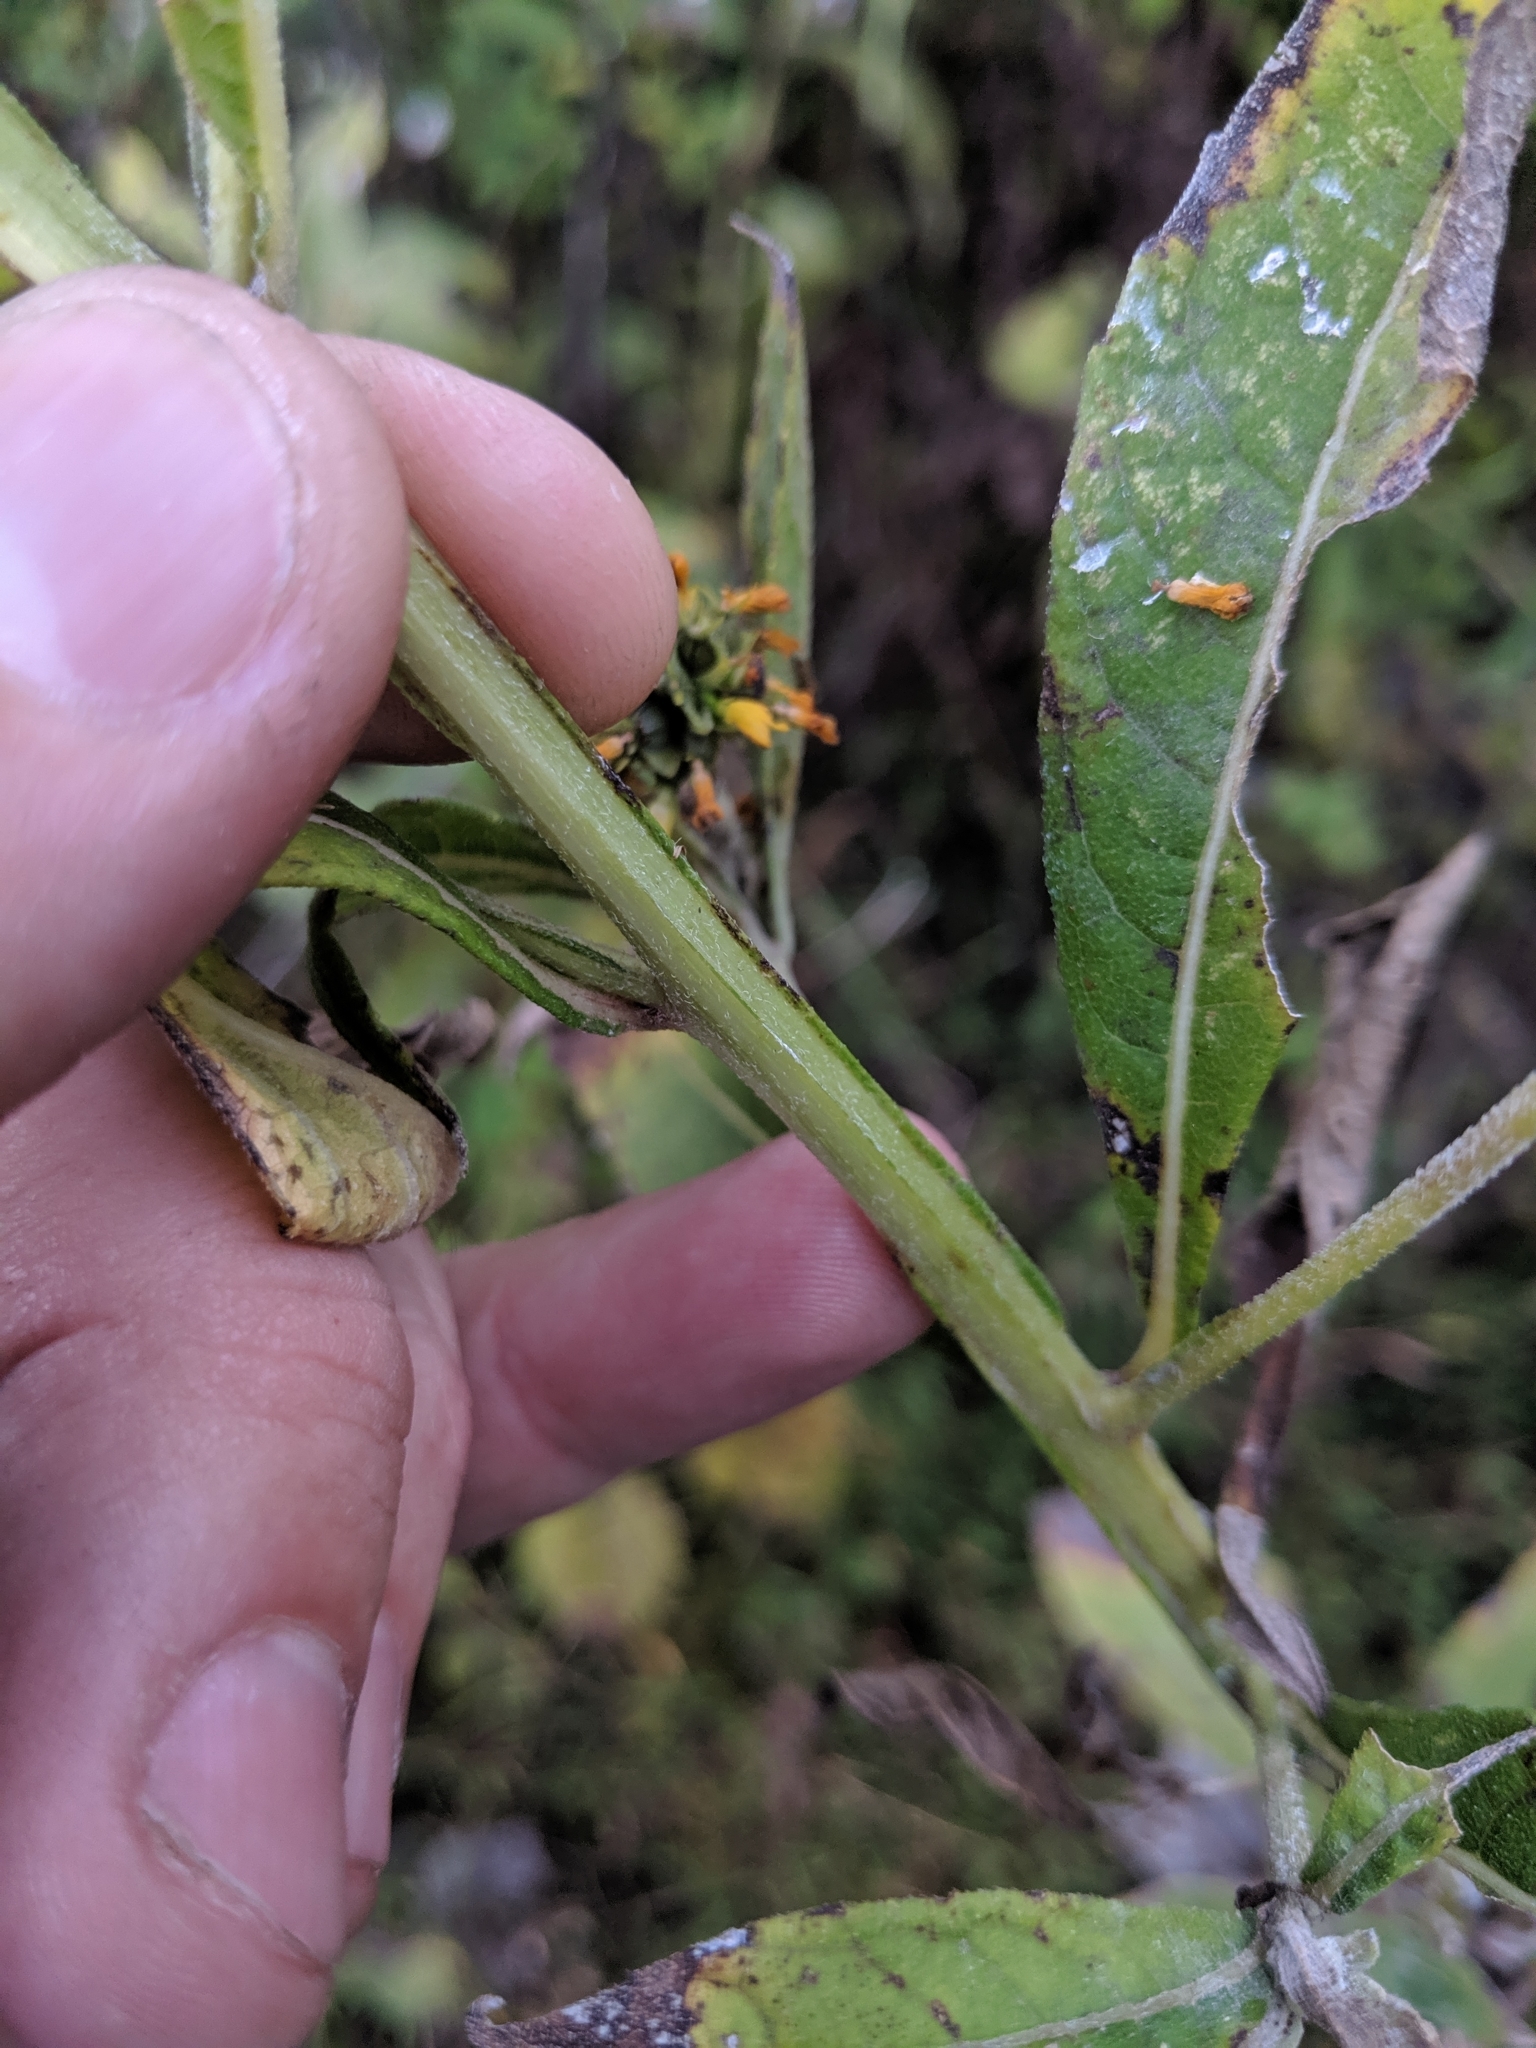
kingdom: Plantae
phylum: Tracheophyta
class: Magnoliopsida
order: Asterales
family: Asteraceae
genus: Verbesina
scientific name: Verbesina alternifolia
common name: Wingstem
